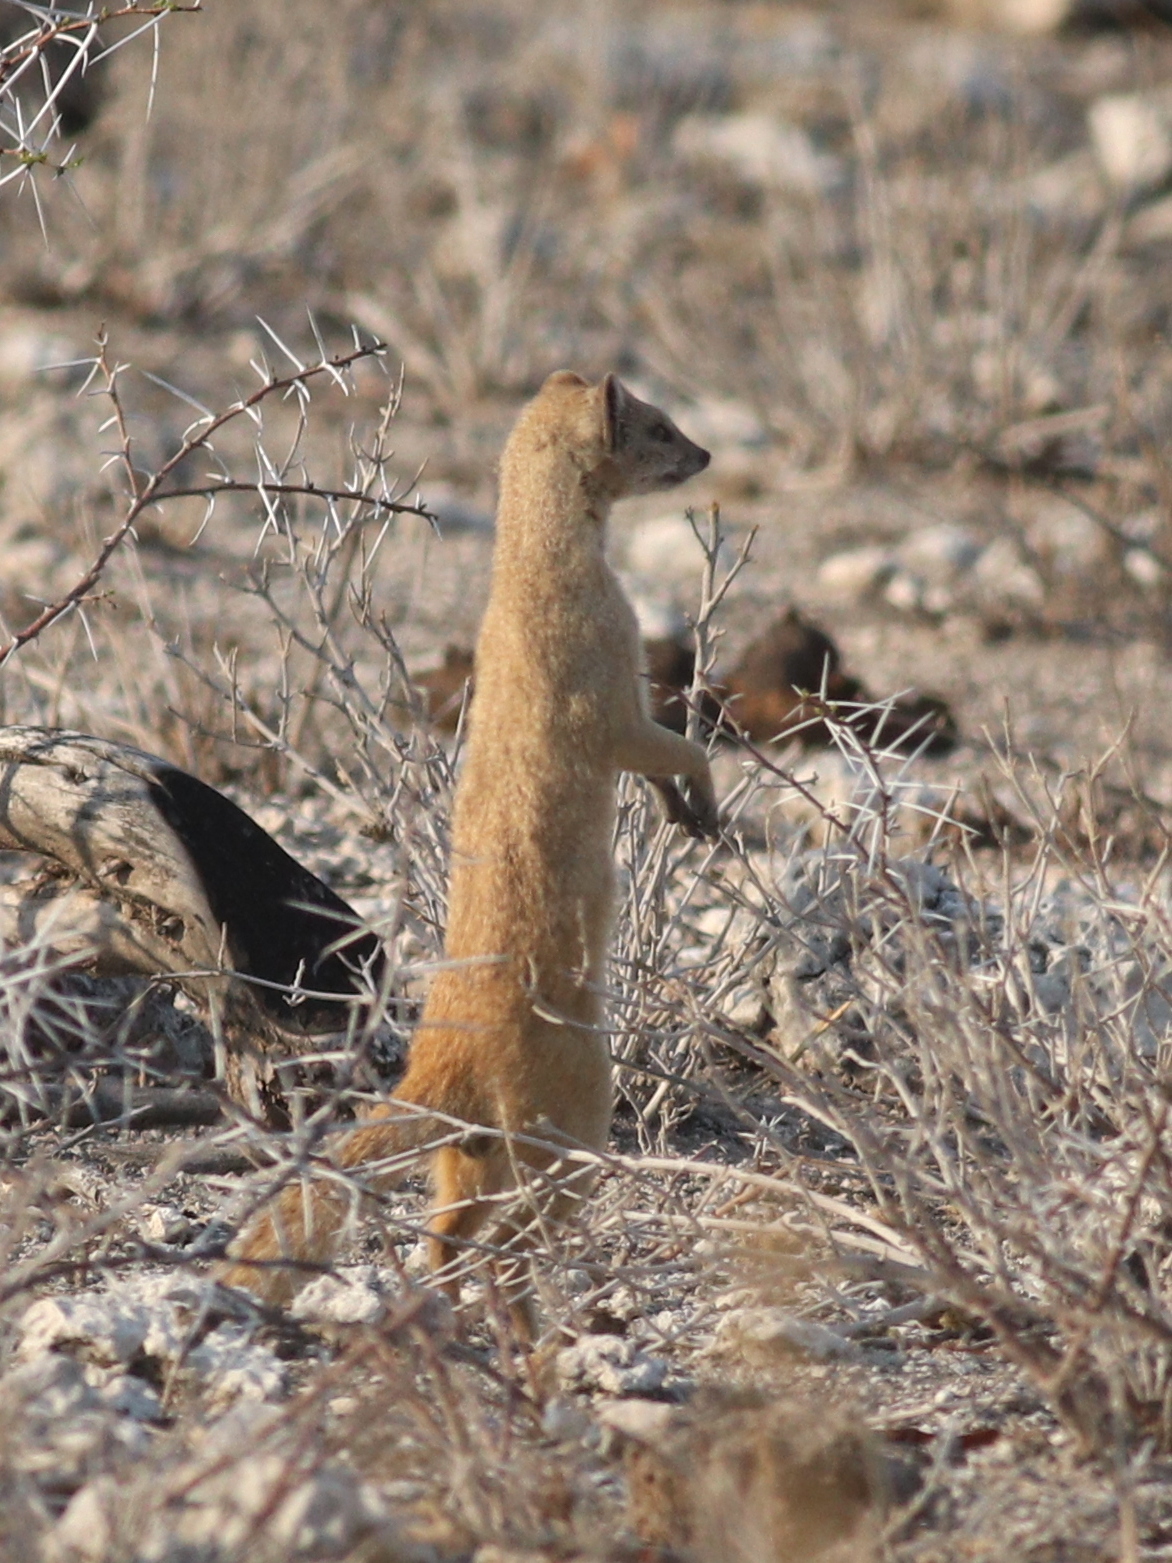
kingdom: Animalia
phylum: Chordata
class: Mammalia
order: Carnivora
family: Herpestidae
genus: Cynictis
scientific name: Cynictis penicillata
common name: Yellow mongoose
